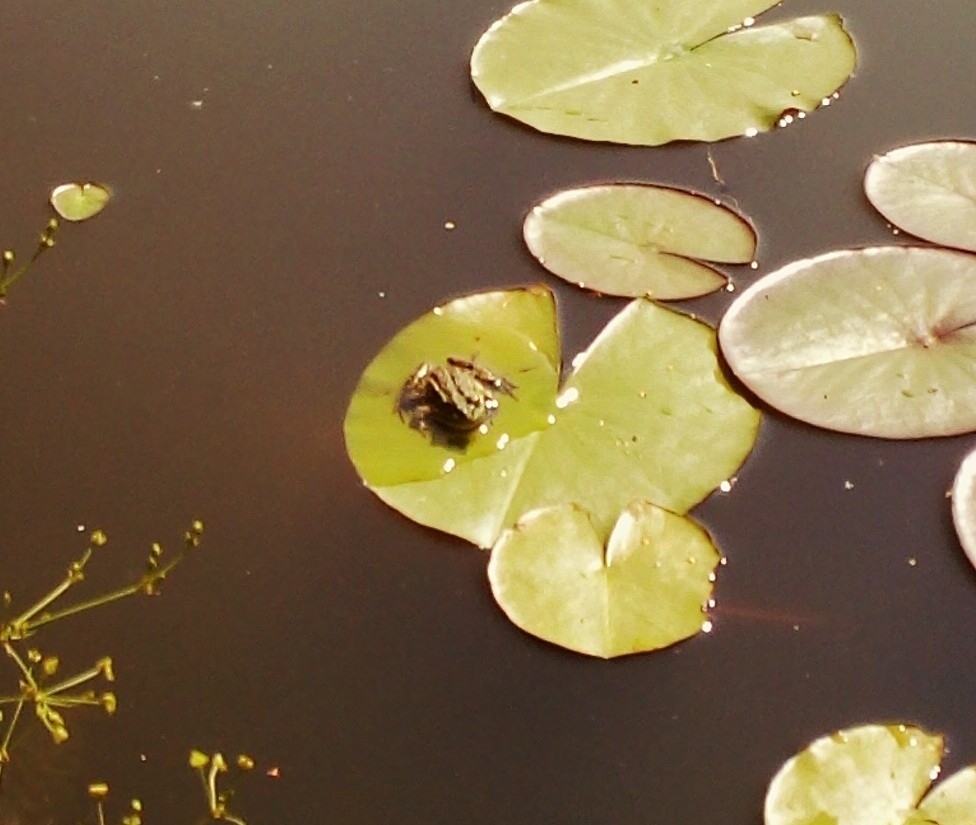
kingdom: Animalia
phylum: Chordata
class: Amphibia
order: Anura
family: Ranidae
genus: Pelophylax
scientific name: Pelophylax
